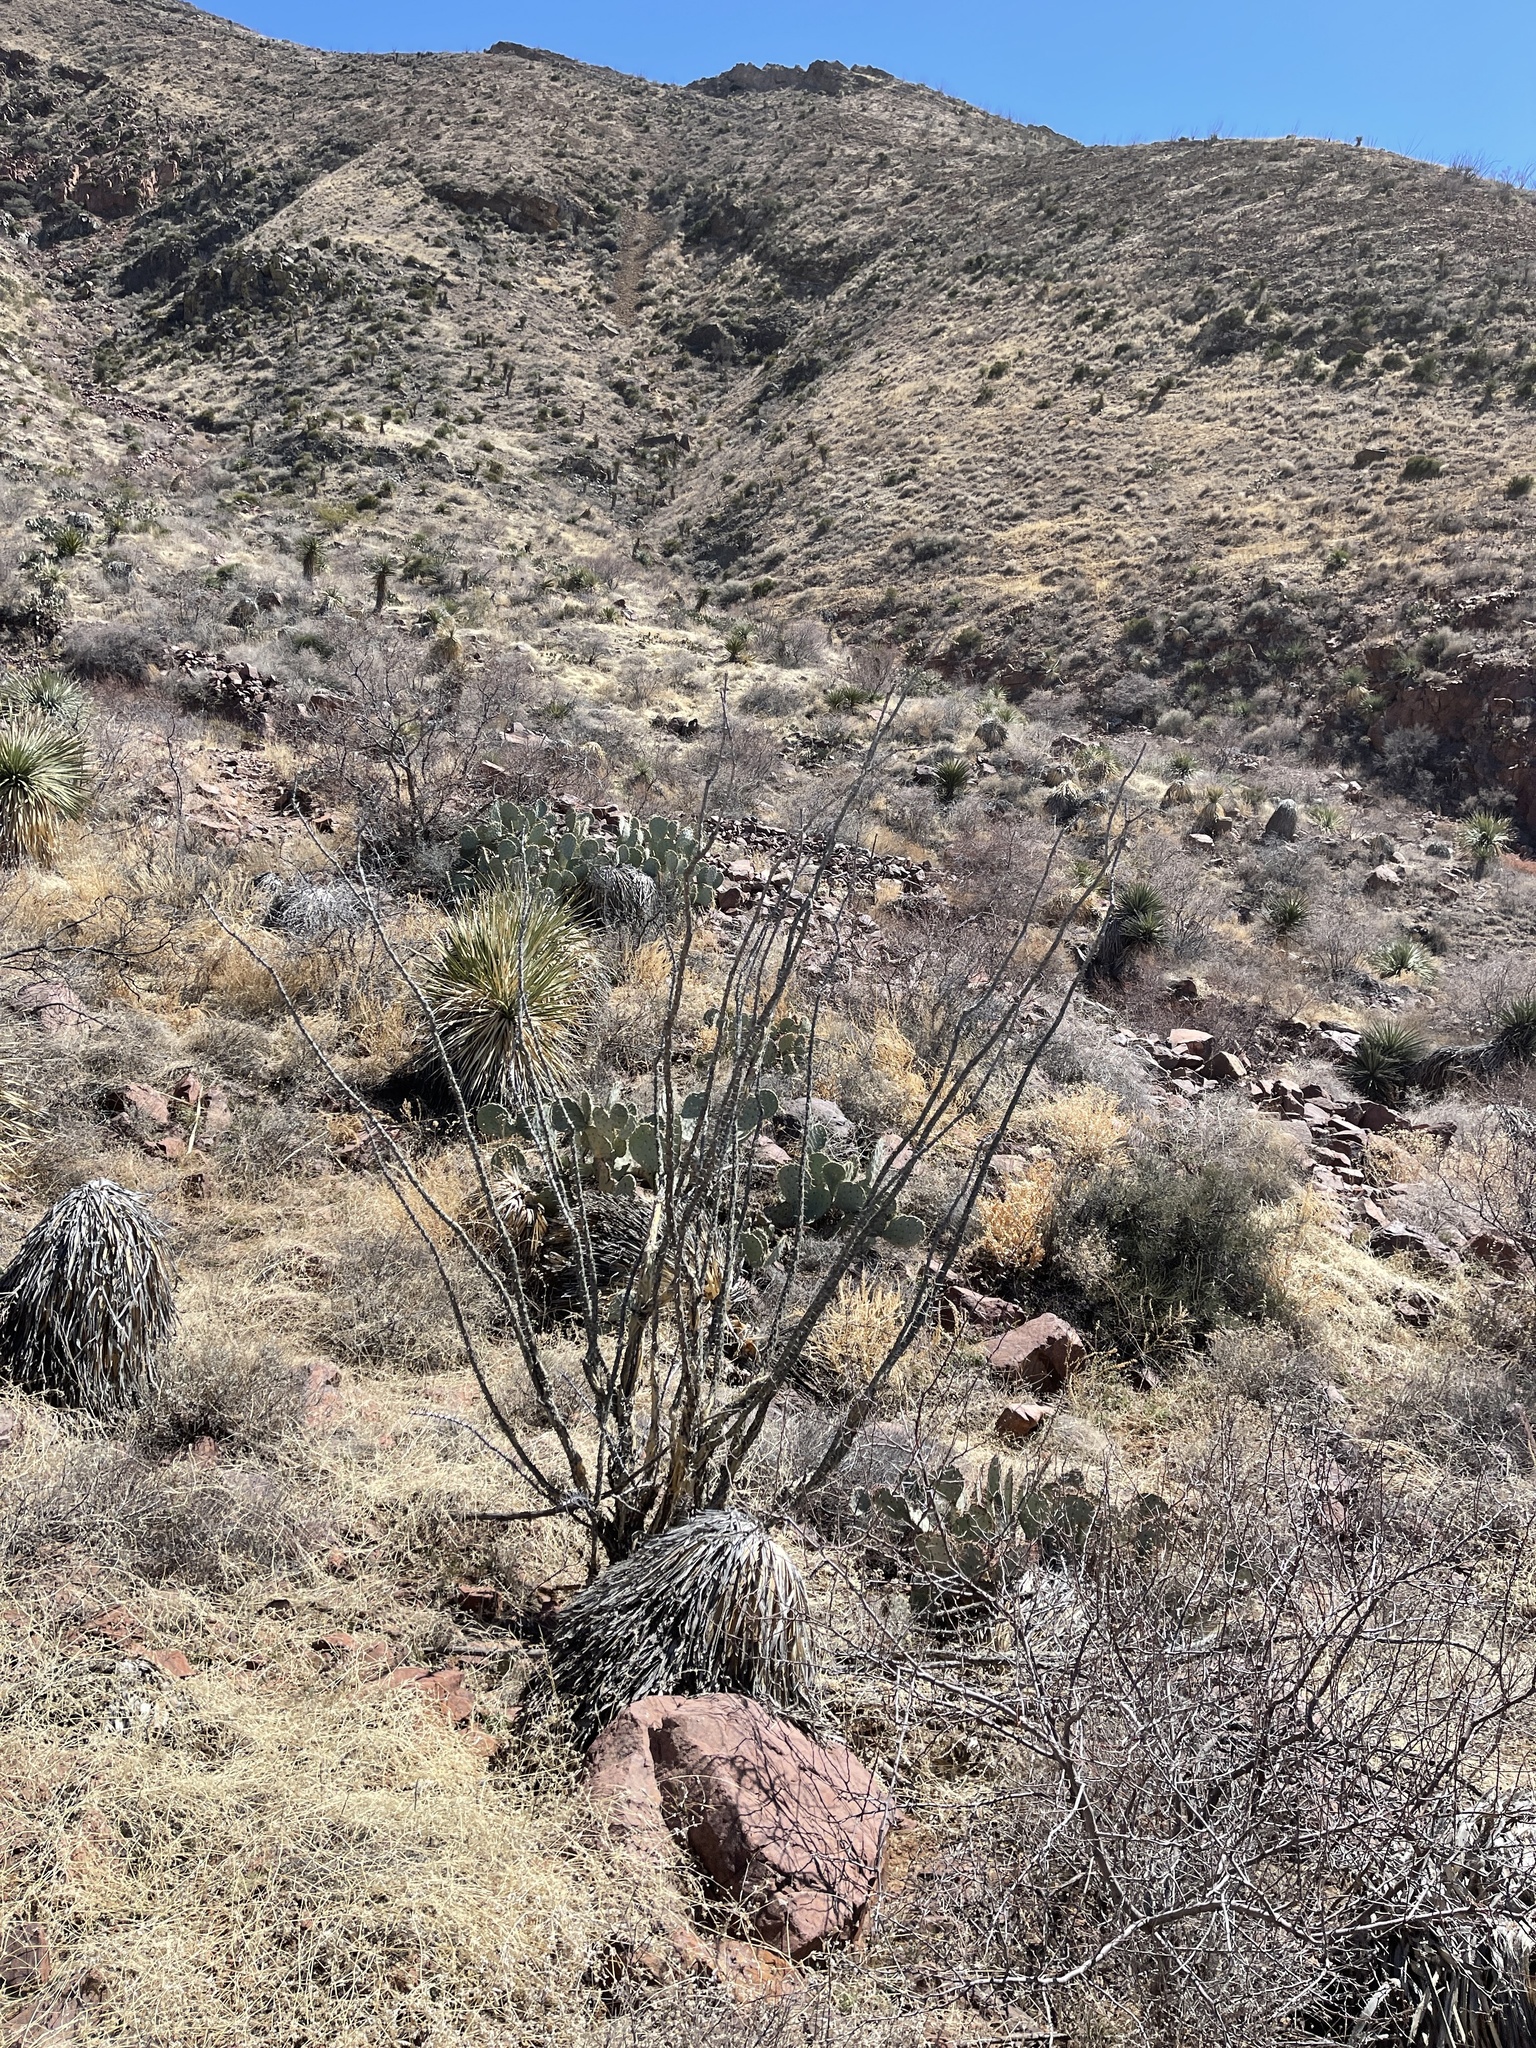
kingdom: Plantae
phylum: Tracheophyta
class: Magnoliopsida
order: Ericales
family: Fouquieriaceae
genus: Fouquieria
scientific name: Fouquieria splendens
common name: Vine-cactus
